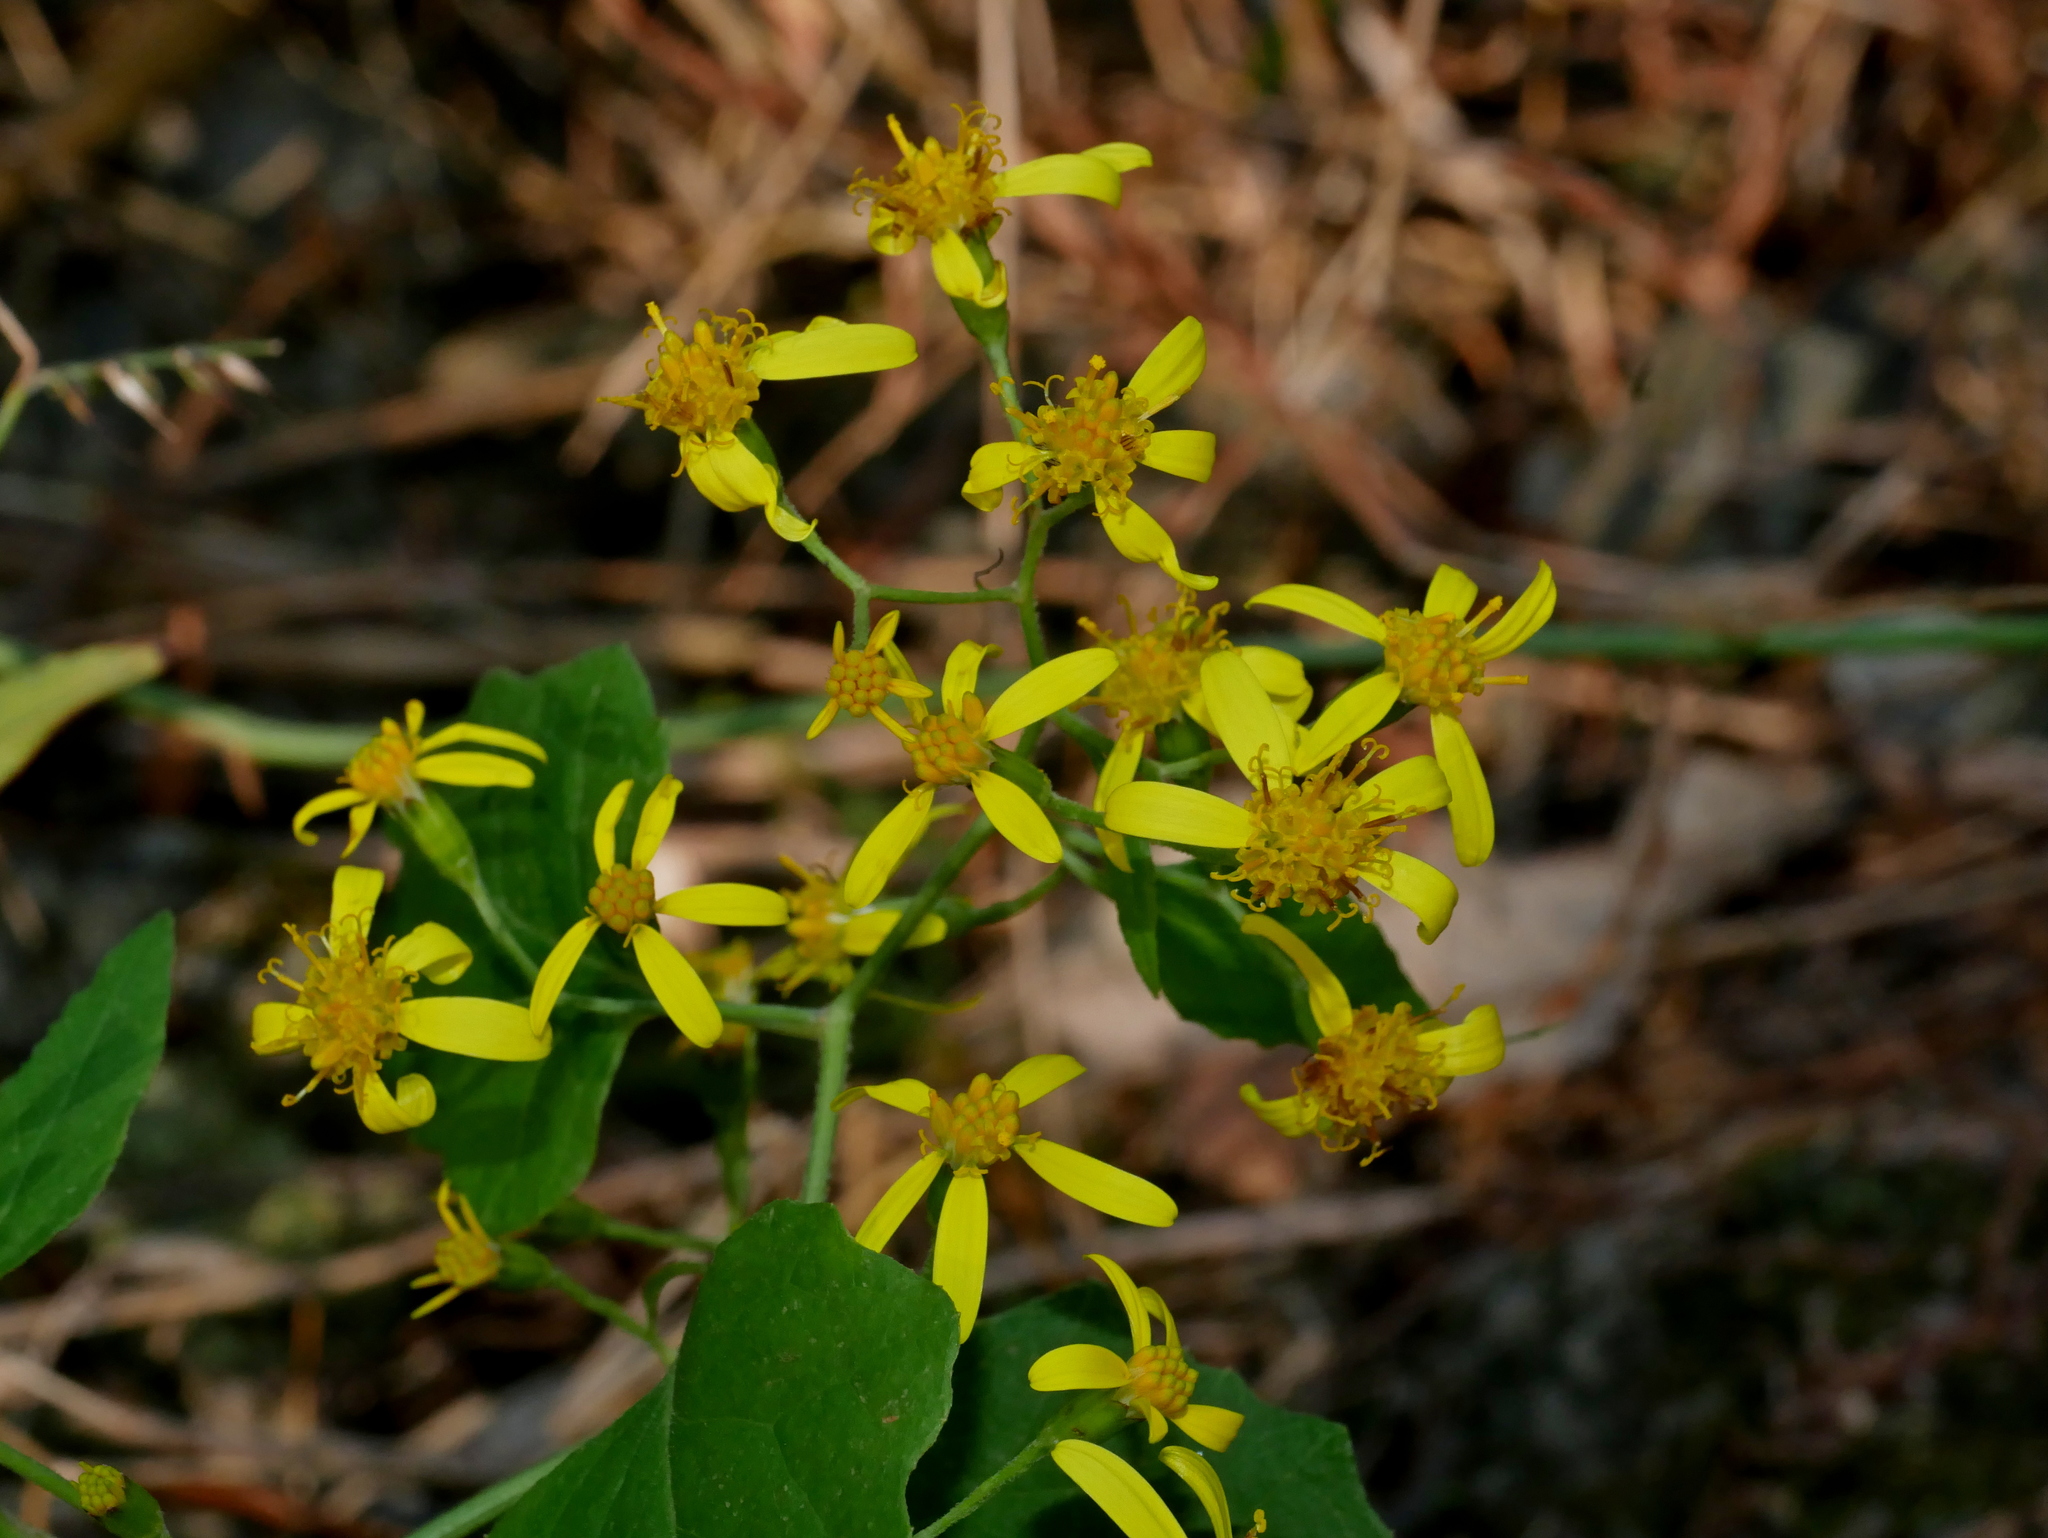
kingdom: Plantae
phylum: Tracheophyta
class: Magnoliopsida
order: Asterales
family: Asteraceae
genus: Senecio
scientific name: Senecio scandens
